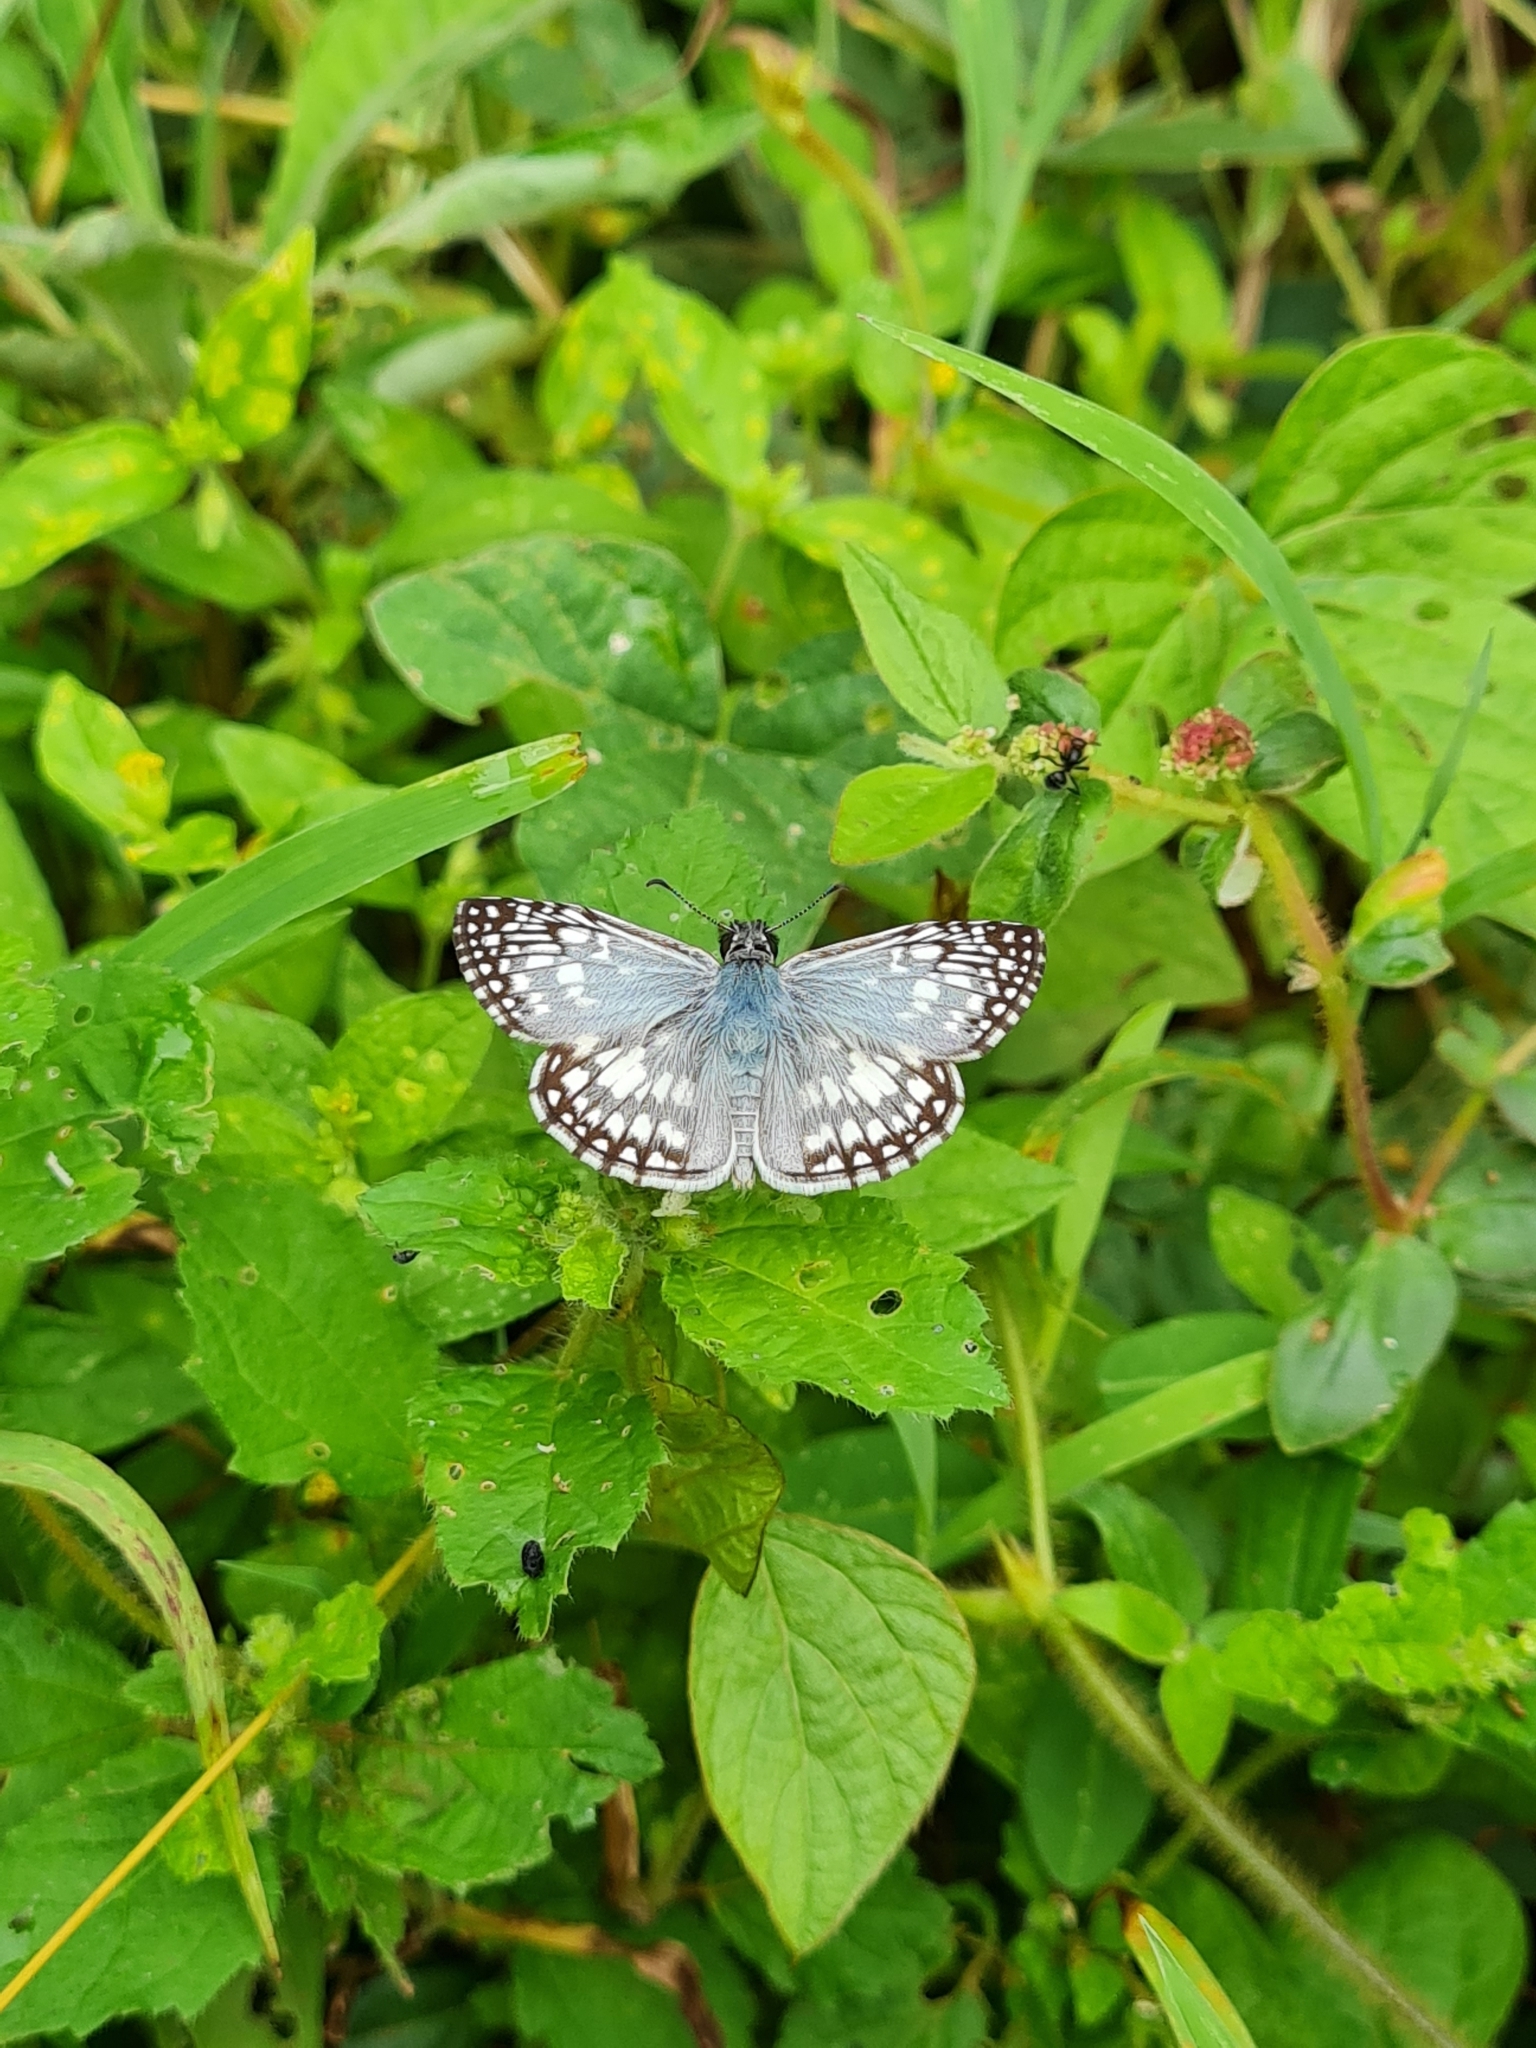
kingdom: Animalia
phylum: Arthropoda
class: Insecta
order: Lepidoptera
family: Hesperiidae
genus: Pyrgus
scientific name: Pyrgus oileus
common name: Tropical checkered-skipper
